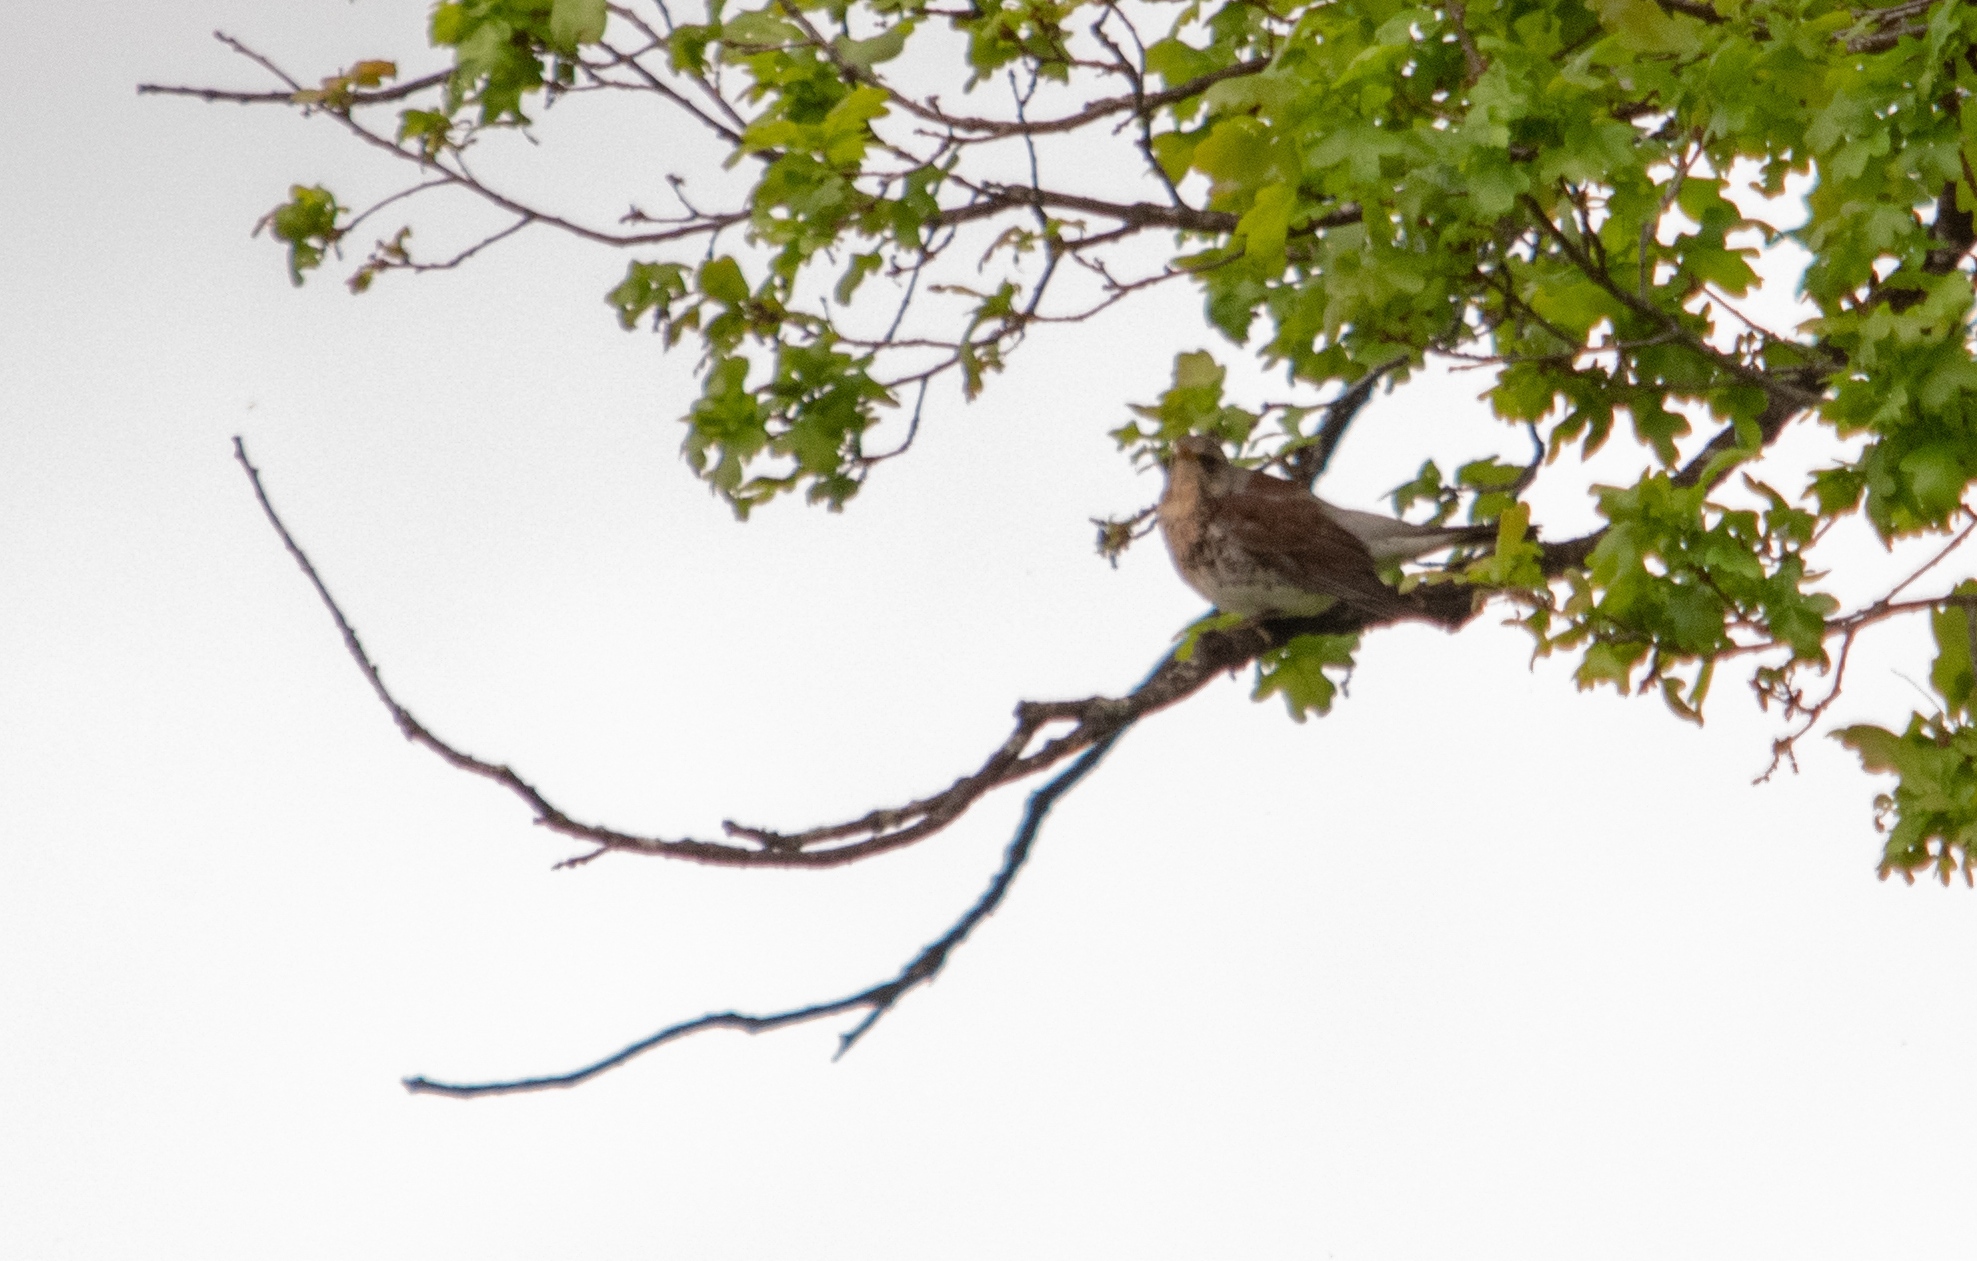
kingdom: Animalia
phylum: Chordata
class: Aves
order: Passeriformes
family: Turdidae
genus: Turdus
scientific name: Turdus pilaris
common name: Fieldfare
